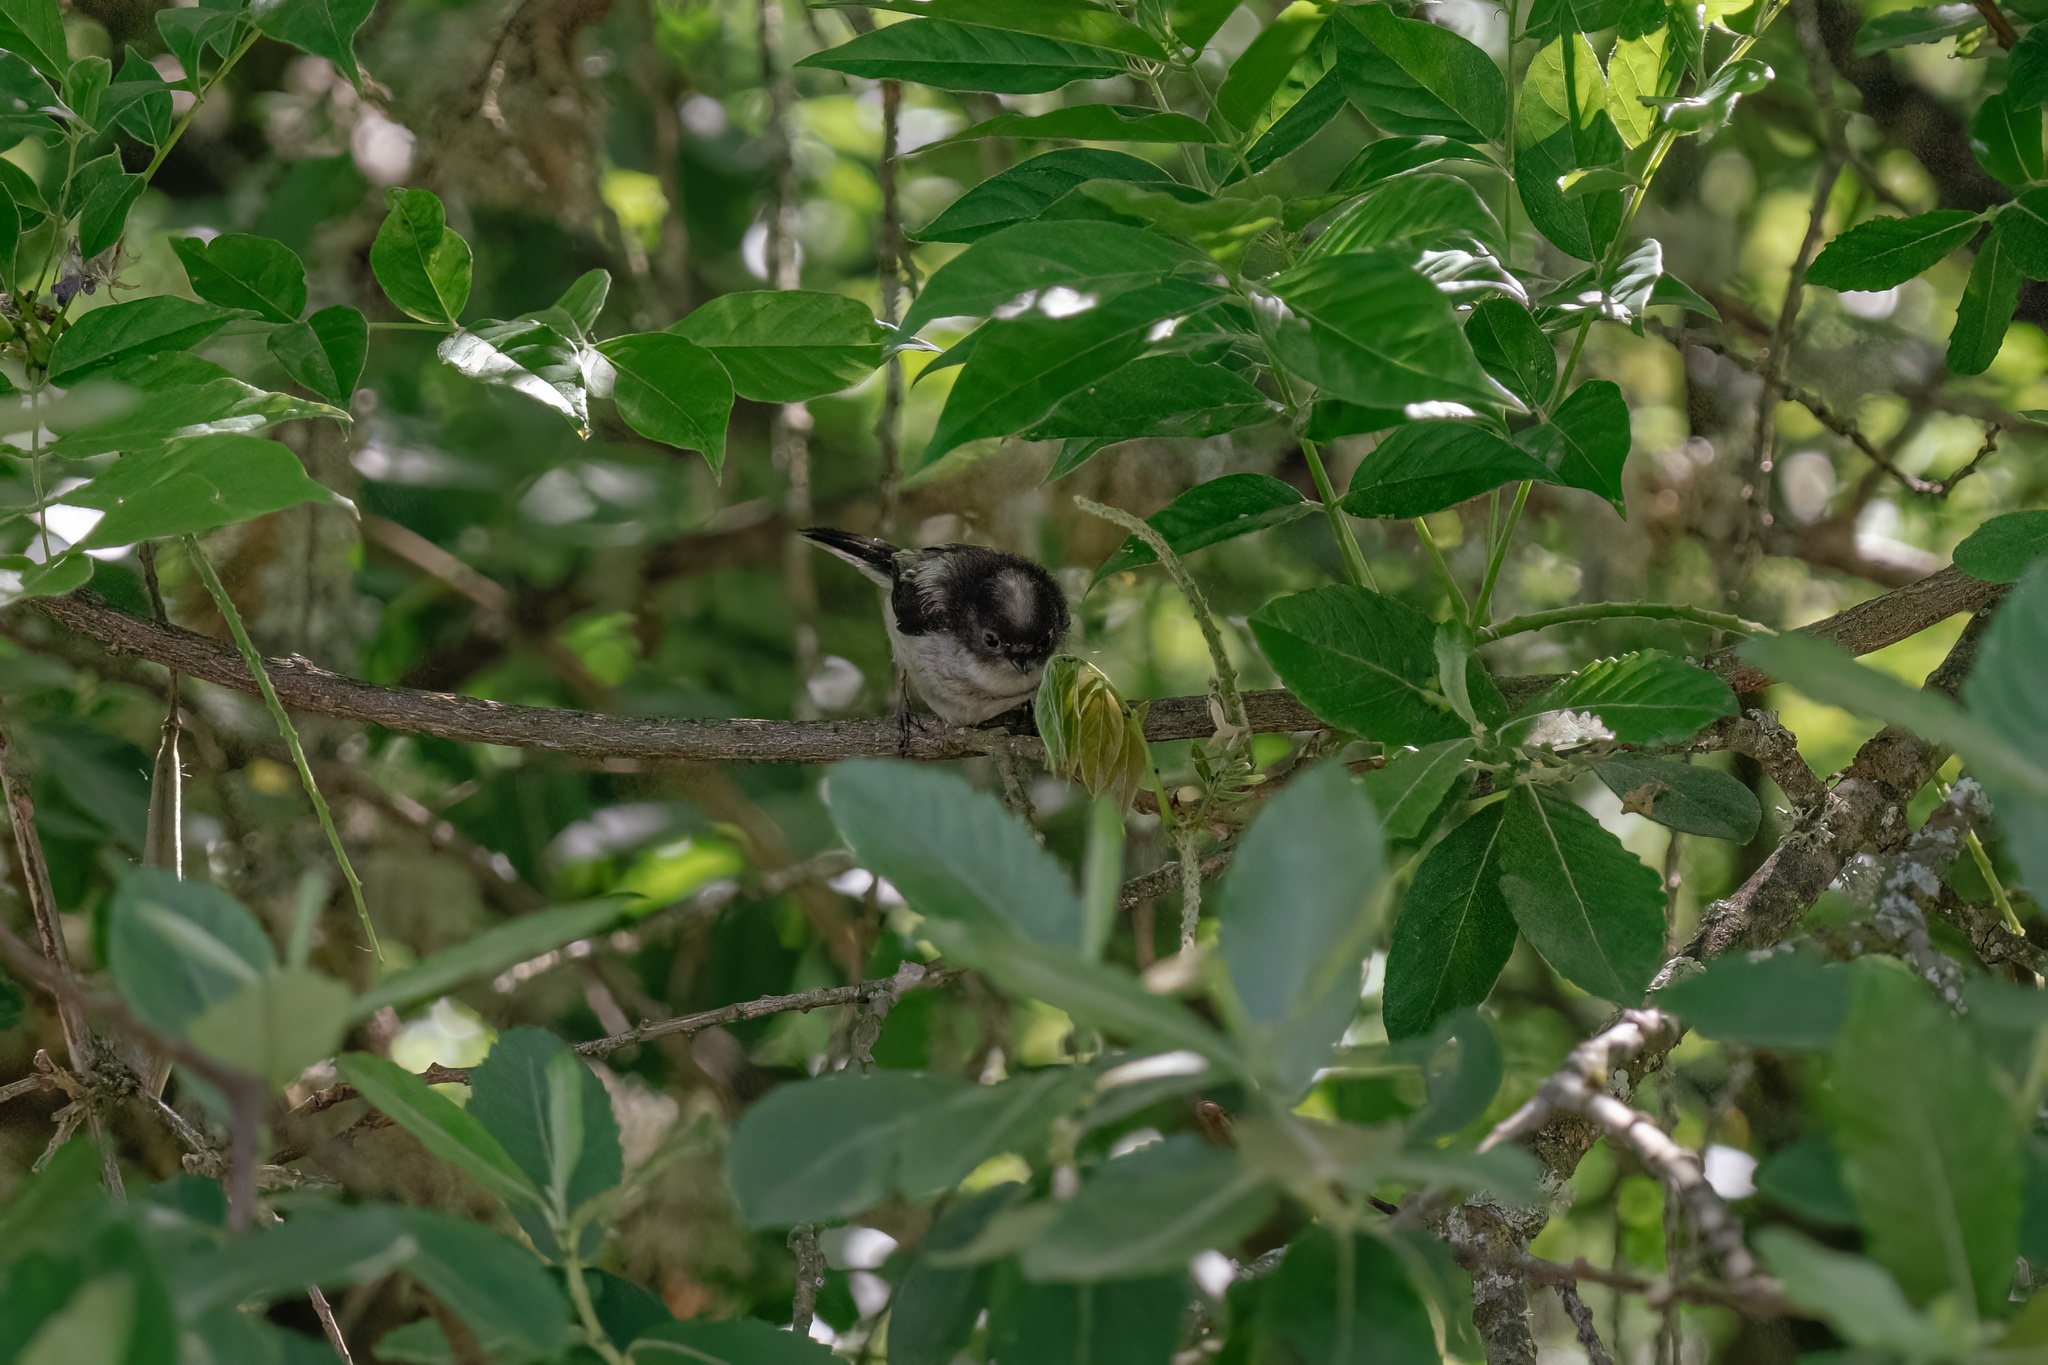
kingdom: Animalia
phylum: Chordata
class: Aves
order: Passeriformes
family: Aegithalidae
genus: Aegithalos
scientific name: Aegithalos caudatus
